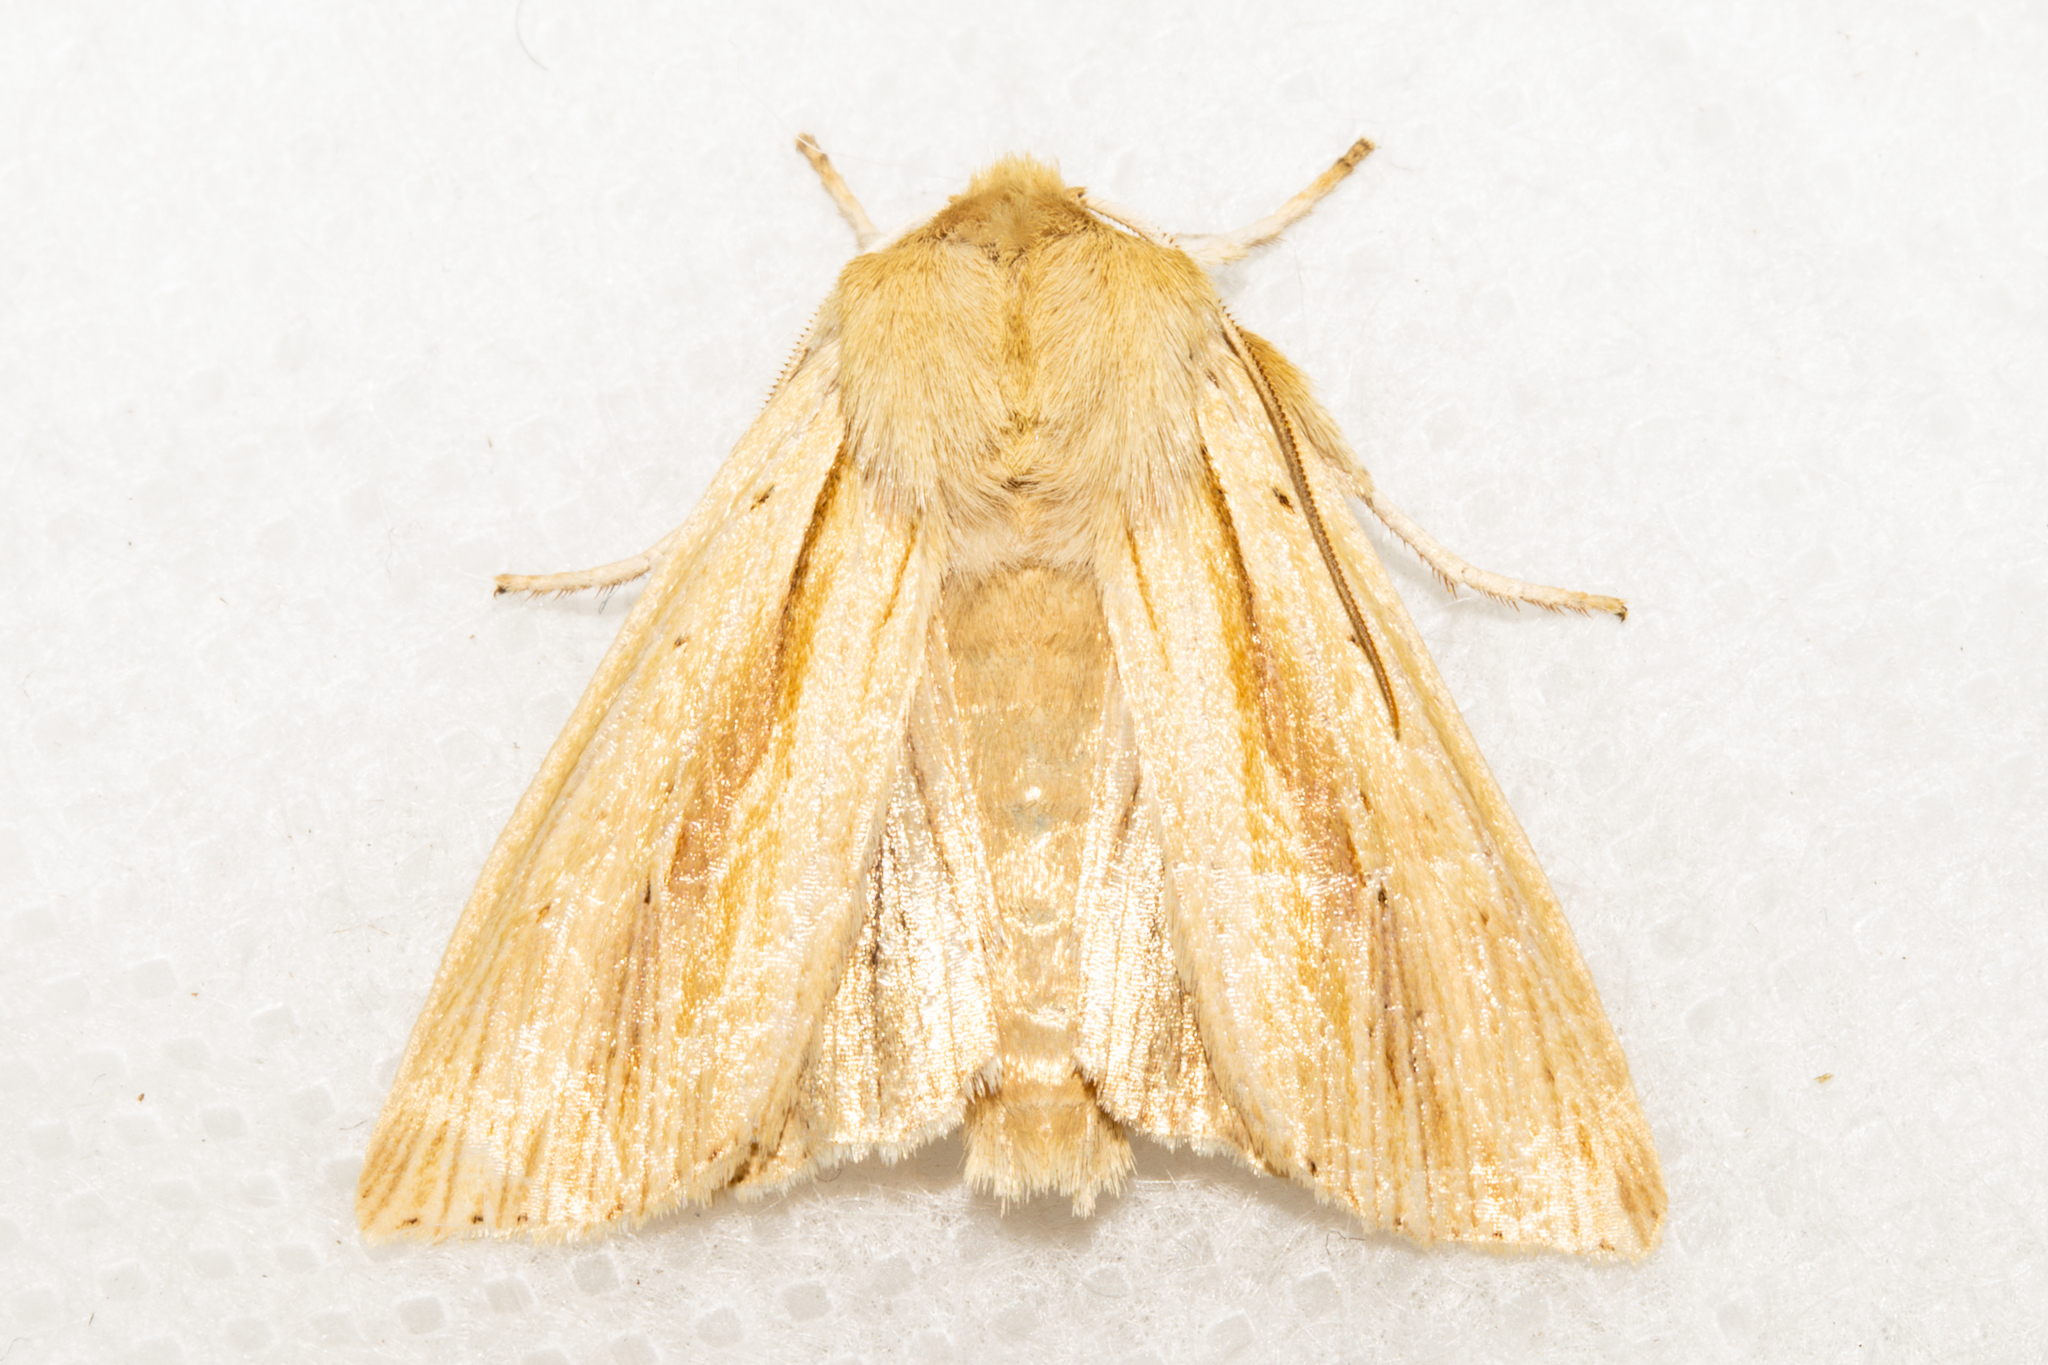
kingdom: Animalia
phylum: Arthropoda
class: Insecta
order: Lepidoptera
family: Noctuidae
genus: Ichneutica
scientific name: Ichneutica semivittata
